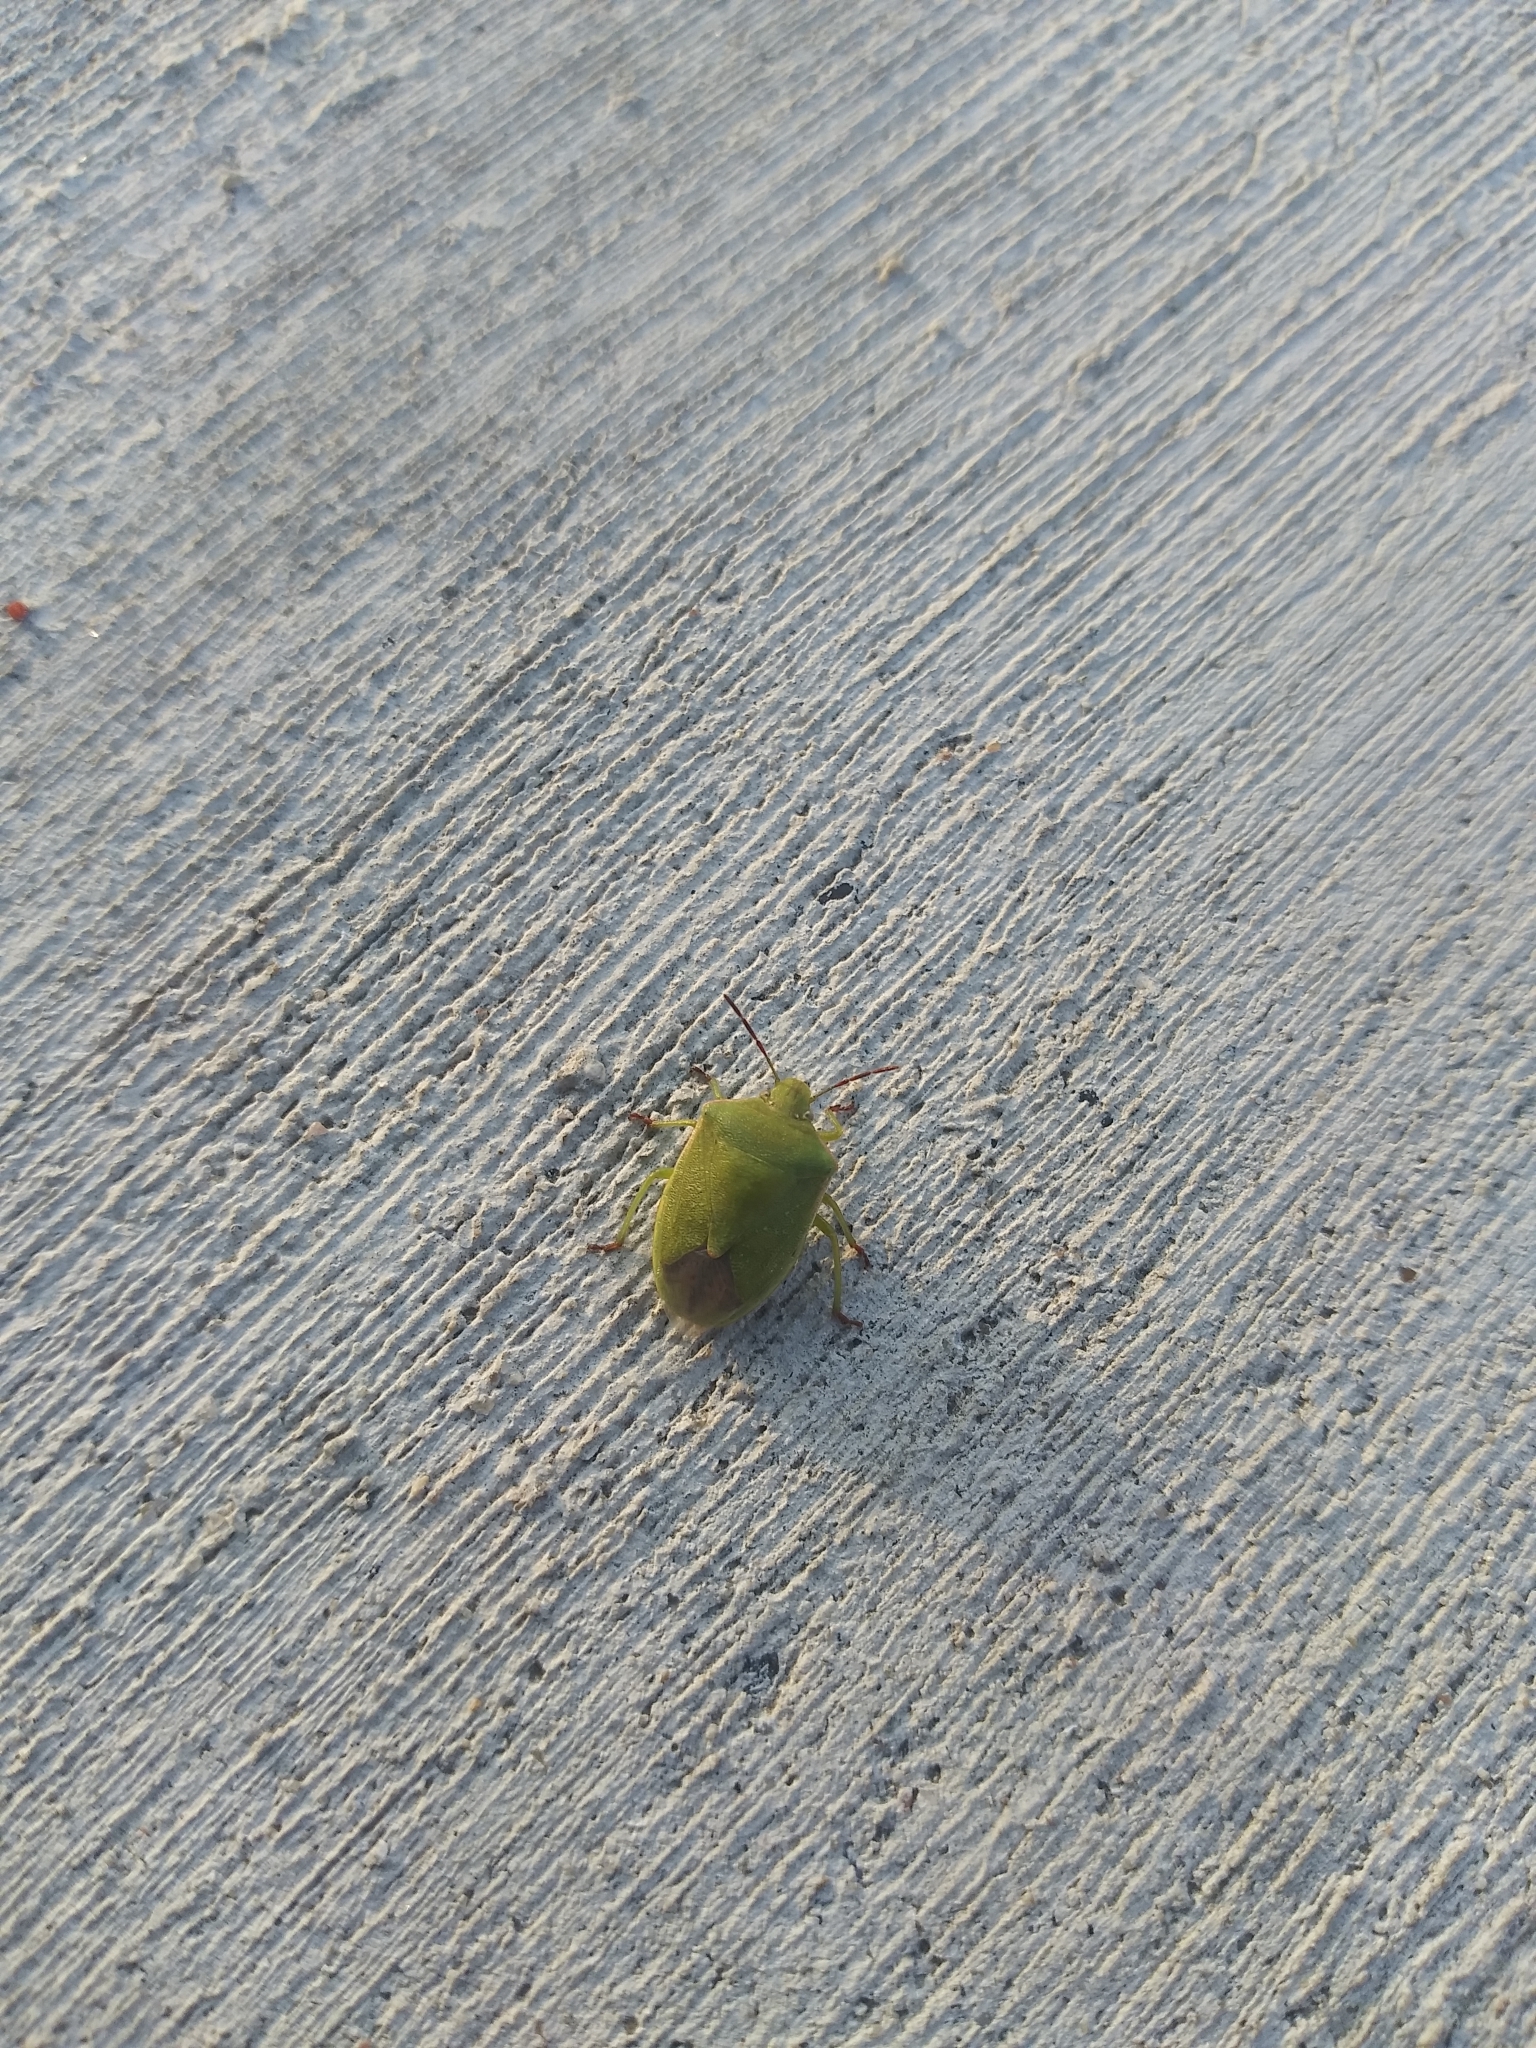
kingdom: Animalia
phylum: Arthropoda
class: Insecta
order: Hemiptera
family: Pentatomidae
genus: Thyanta
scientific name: Thyanta accerra
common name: Stink bug
